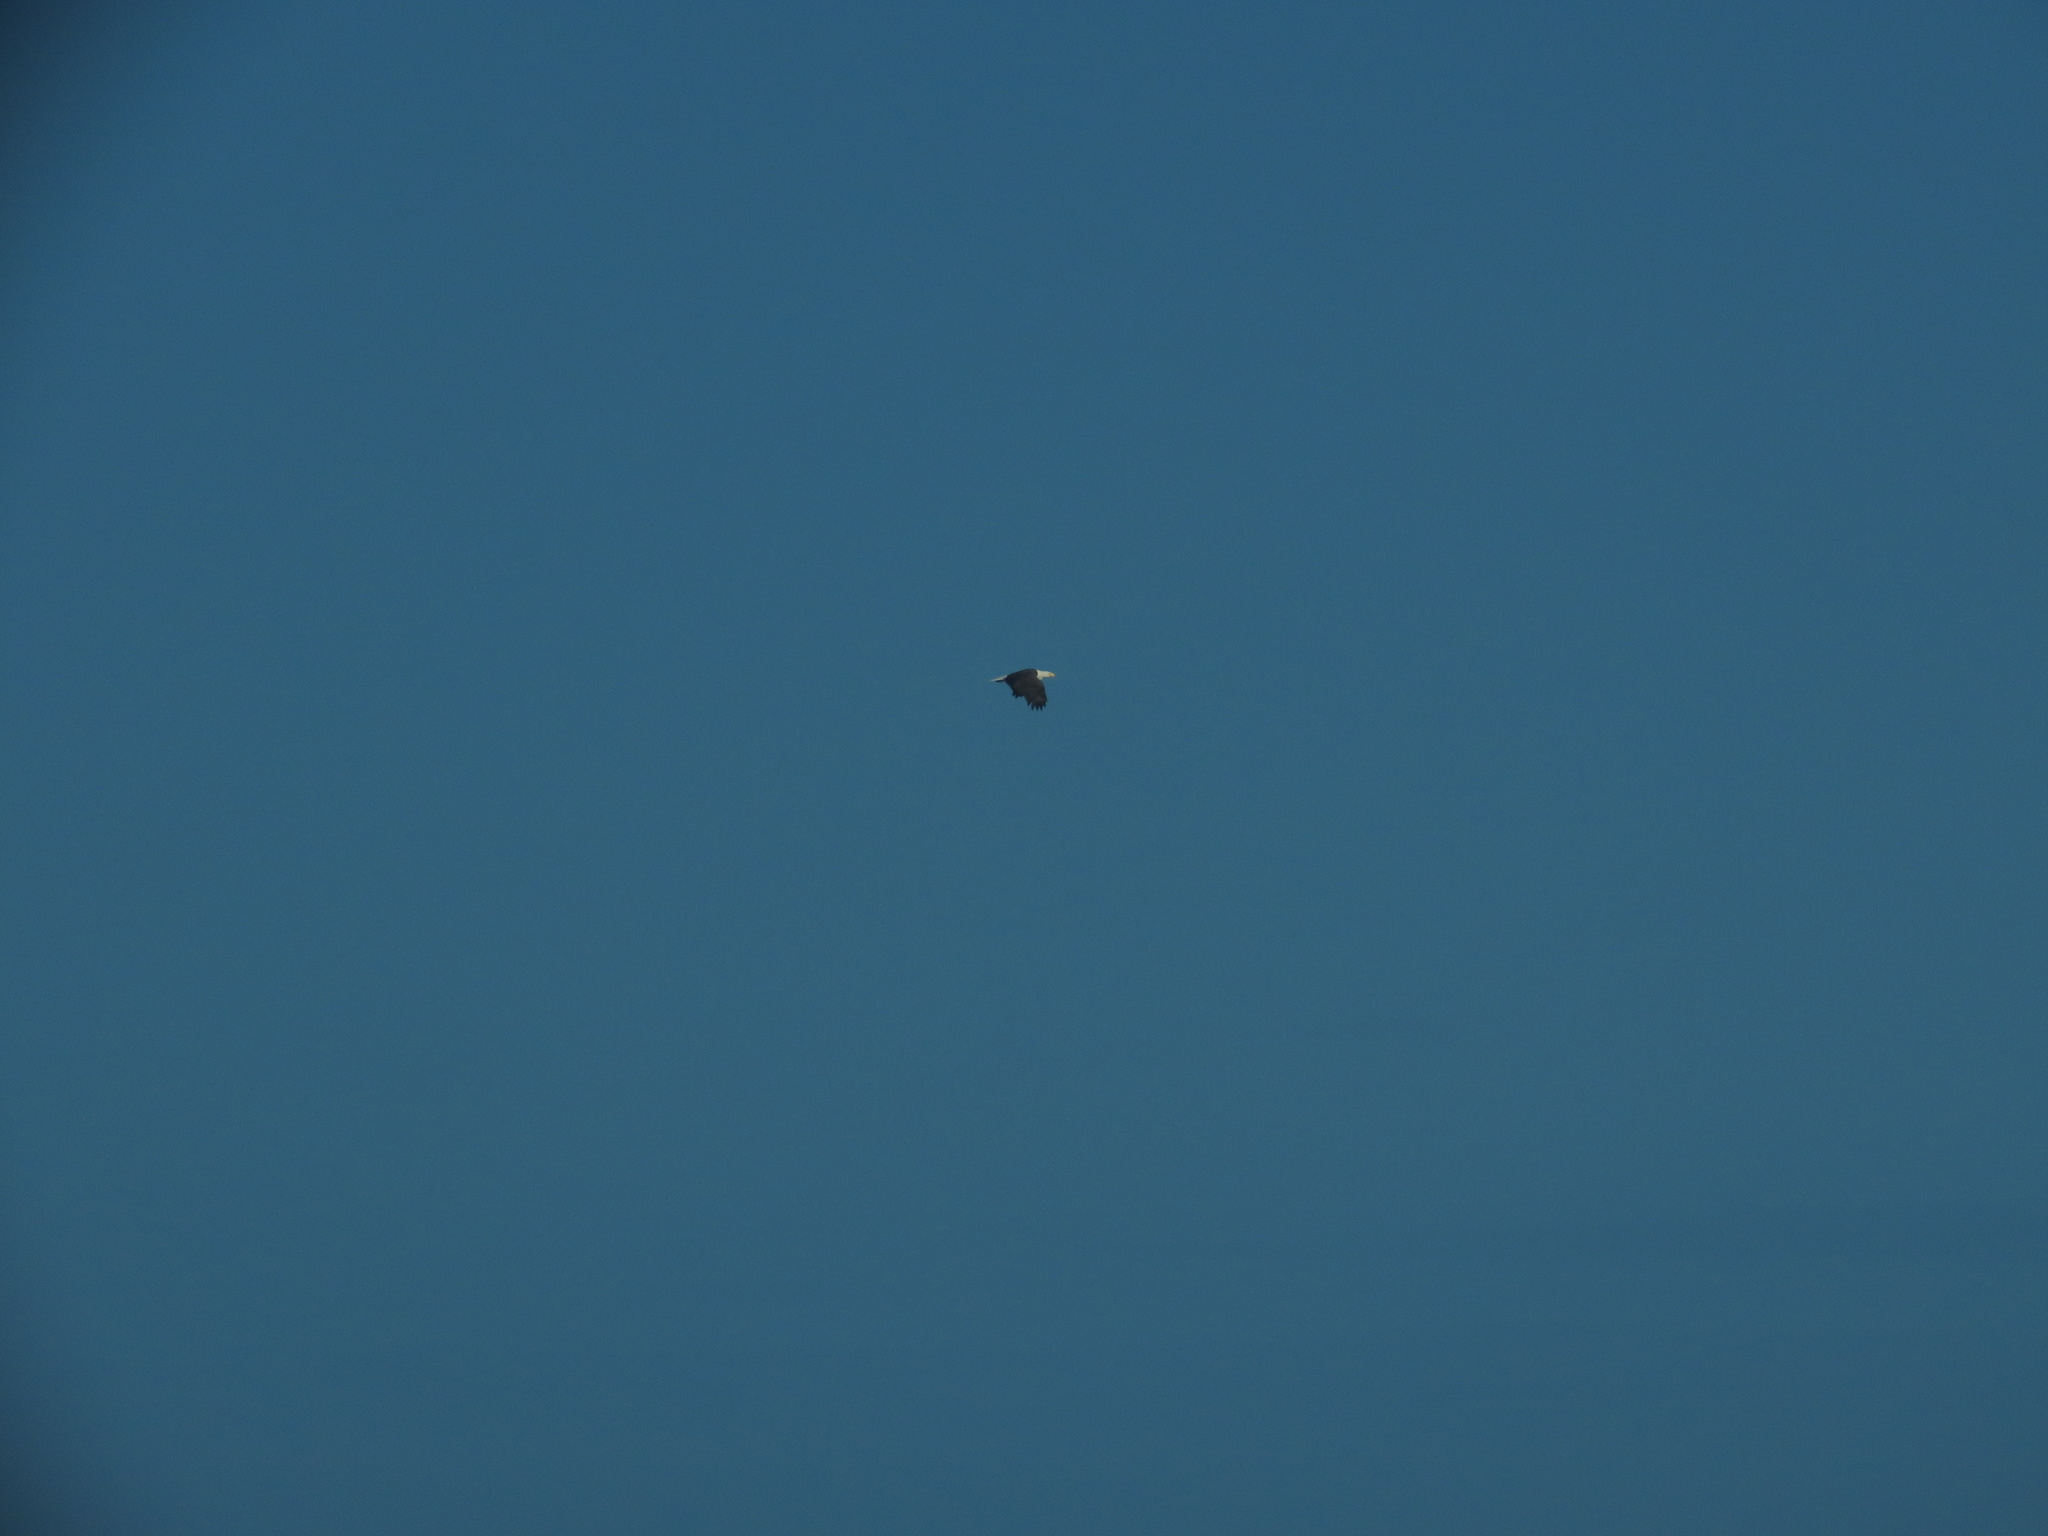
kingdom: Animalia
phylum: Chordata
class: Aves
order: Accipitriformes
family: Accipitridae
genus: Haliaeetus
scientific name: Haliaeetus leucocephalus
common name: Bald eagle
